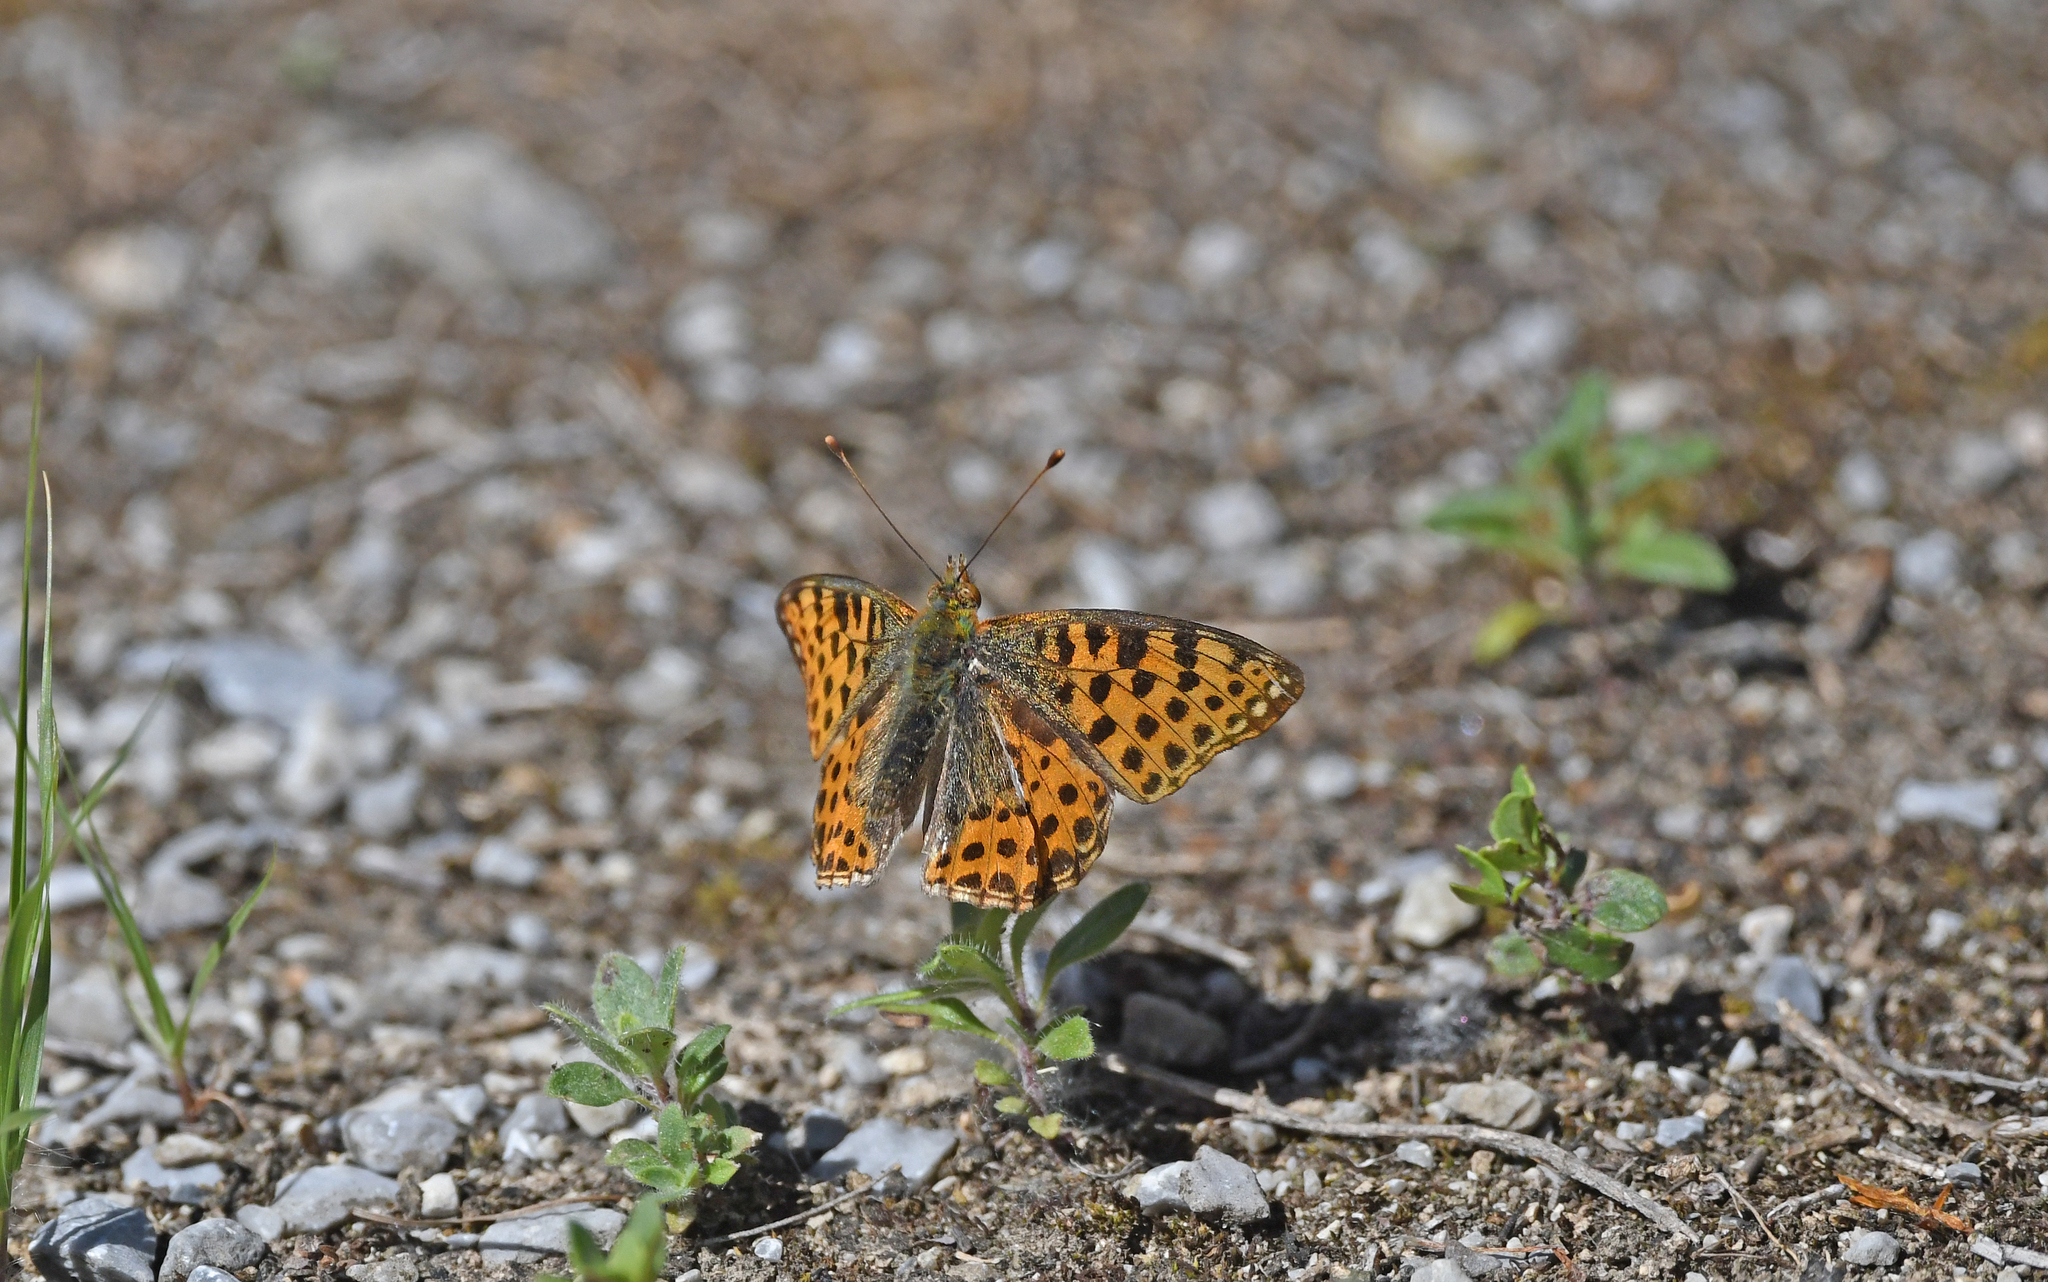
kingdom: Animalia
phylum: Arthropoda
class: Insecta
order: Lepidoptera
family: Nymphalidae
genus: Issoria
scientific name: Issoria lathonia
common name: Queen of spain fritillary
